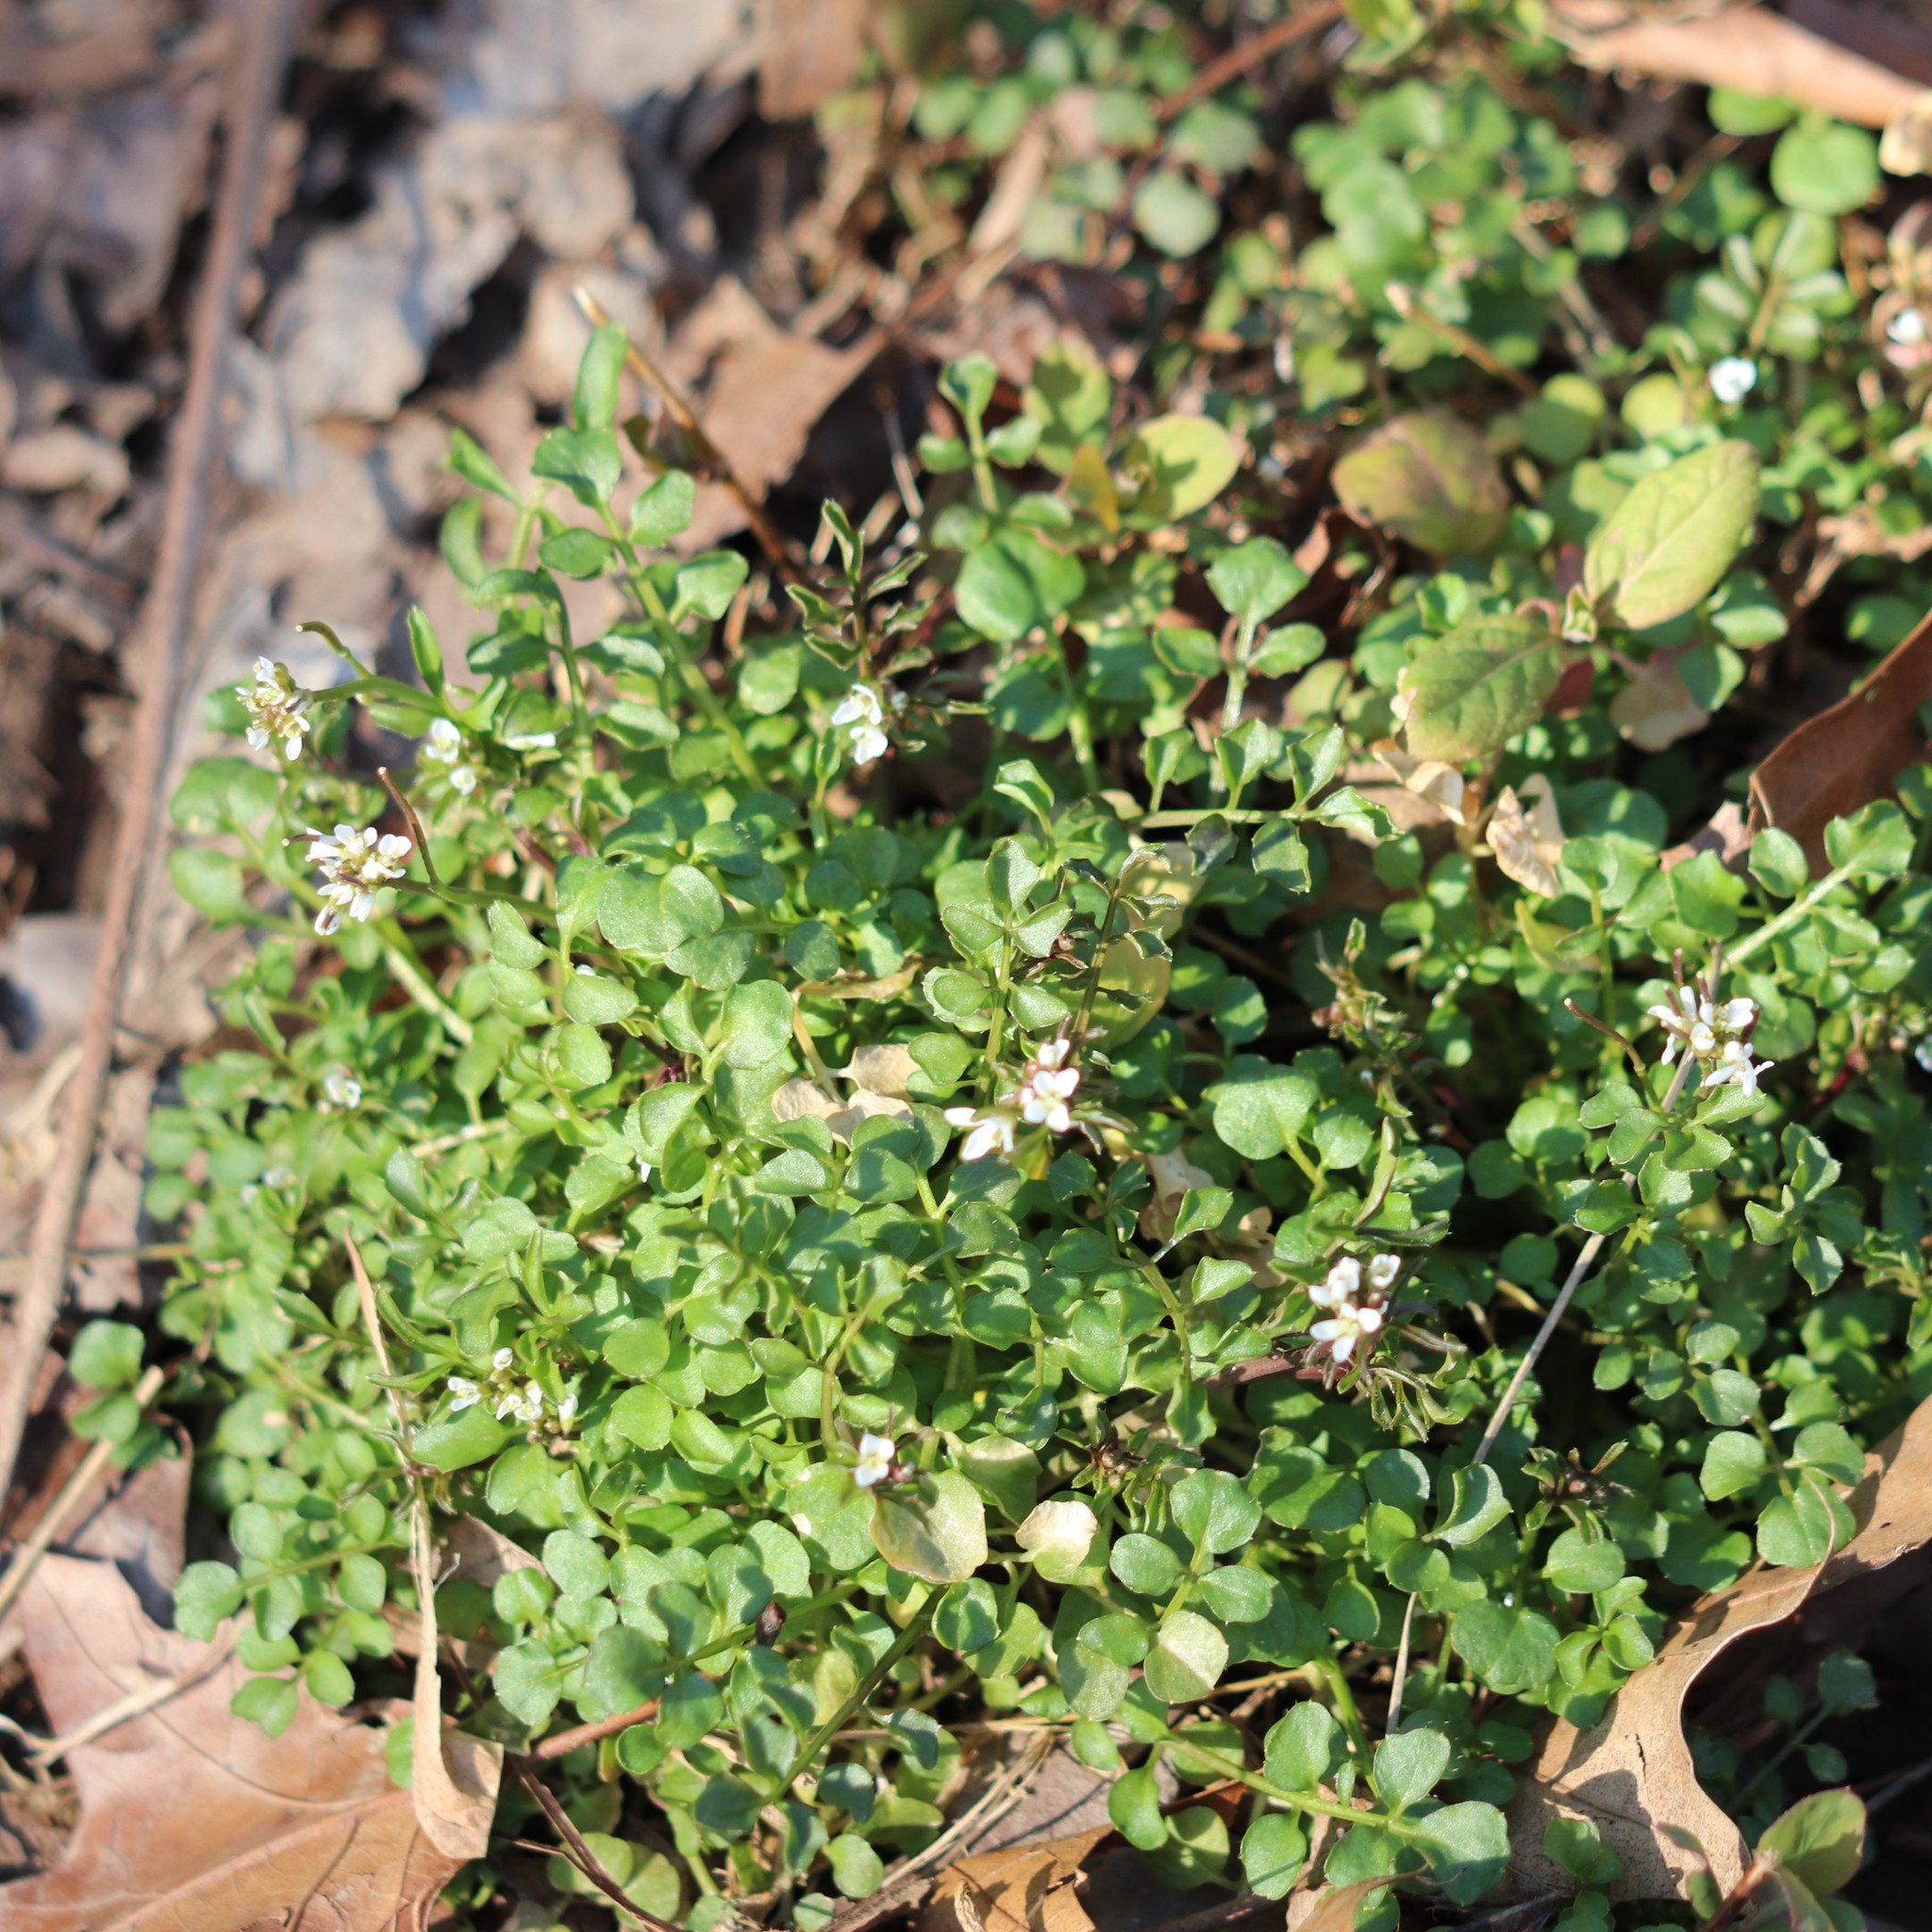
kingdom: Plantae
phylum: Tracheophyta
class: Magnoliopsida
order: Brassicales
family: Brassicaceae
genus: Cardamine
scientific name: Cardamine hirsuta
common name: Hairy bittercress
